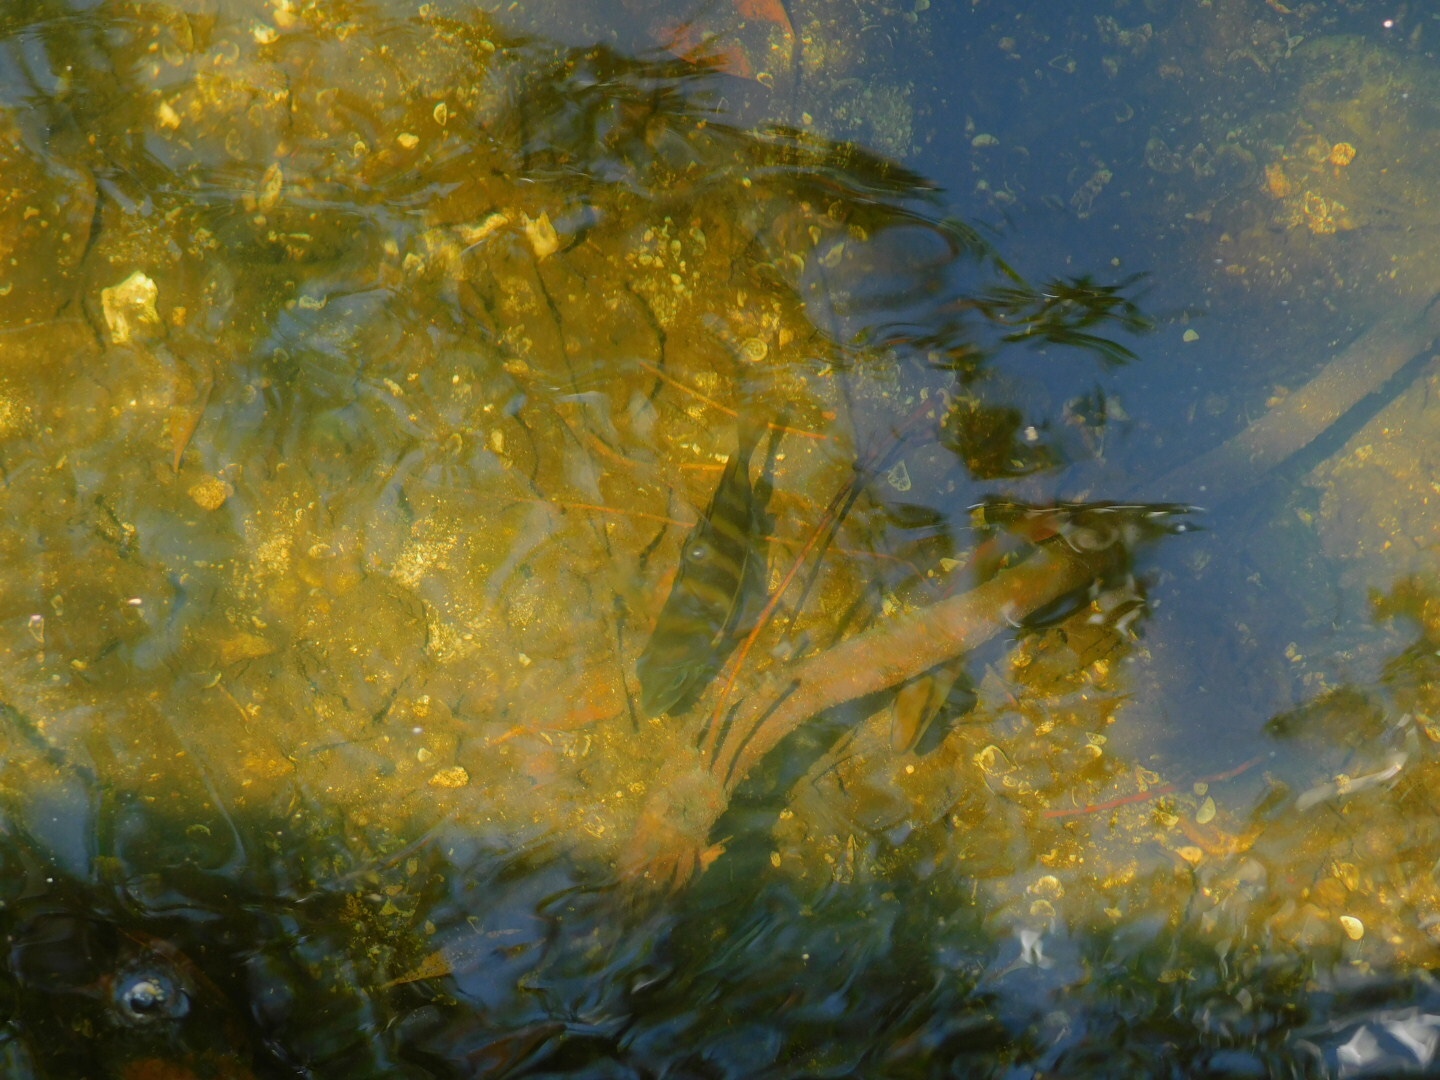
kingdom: Animalia
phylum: Chordata
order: Perciformes
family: Sparidae
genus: Archosargus
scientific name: Archosargus probatocephalus
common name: Sheepshead
